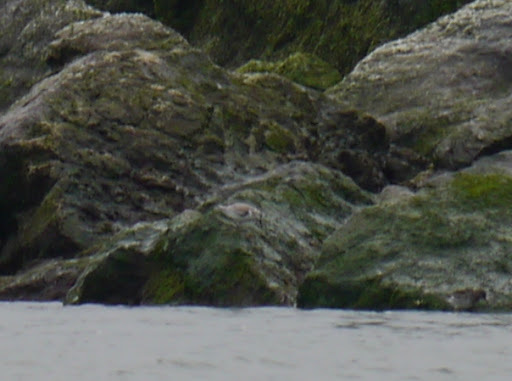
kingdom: Animalia
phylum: Chordata
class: Aves
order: Charadriiformes
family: Scolopacidae
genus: Calidris
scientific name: Calidris alba
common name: Sanderling
